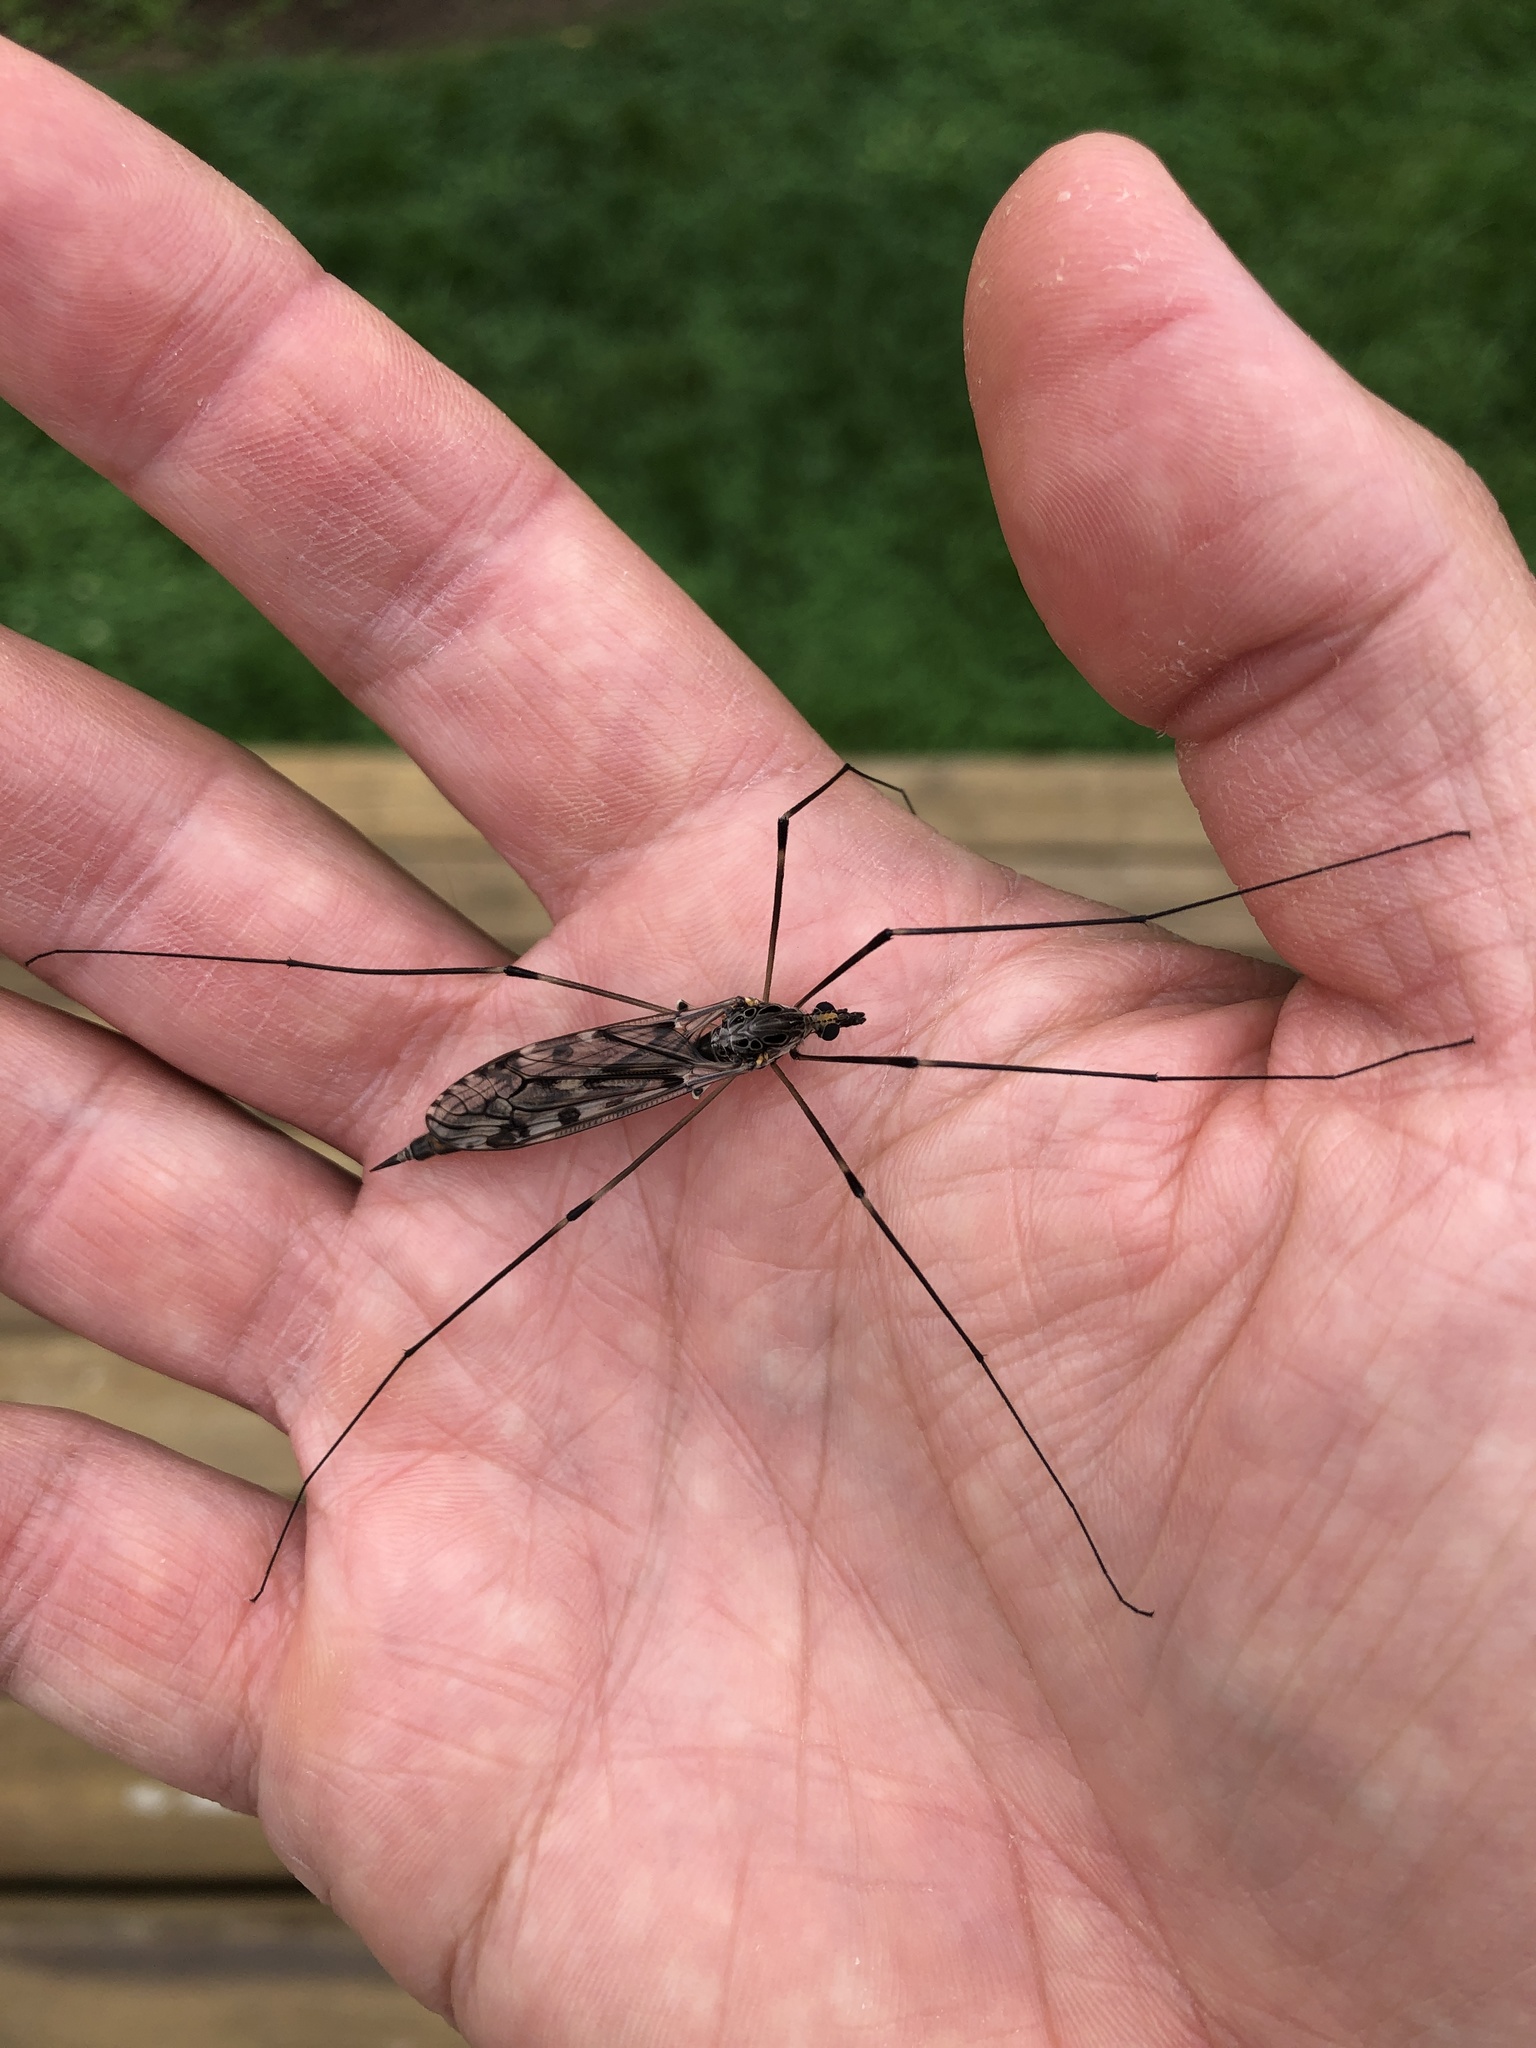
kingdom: Animalia
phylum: Arthropoda
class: Insecta
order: Diptera
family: Tipulidae
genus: Tipula
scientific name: Tipula abdominalis
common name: Giant crane fly
